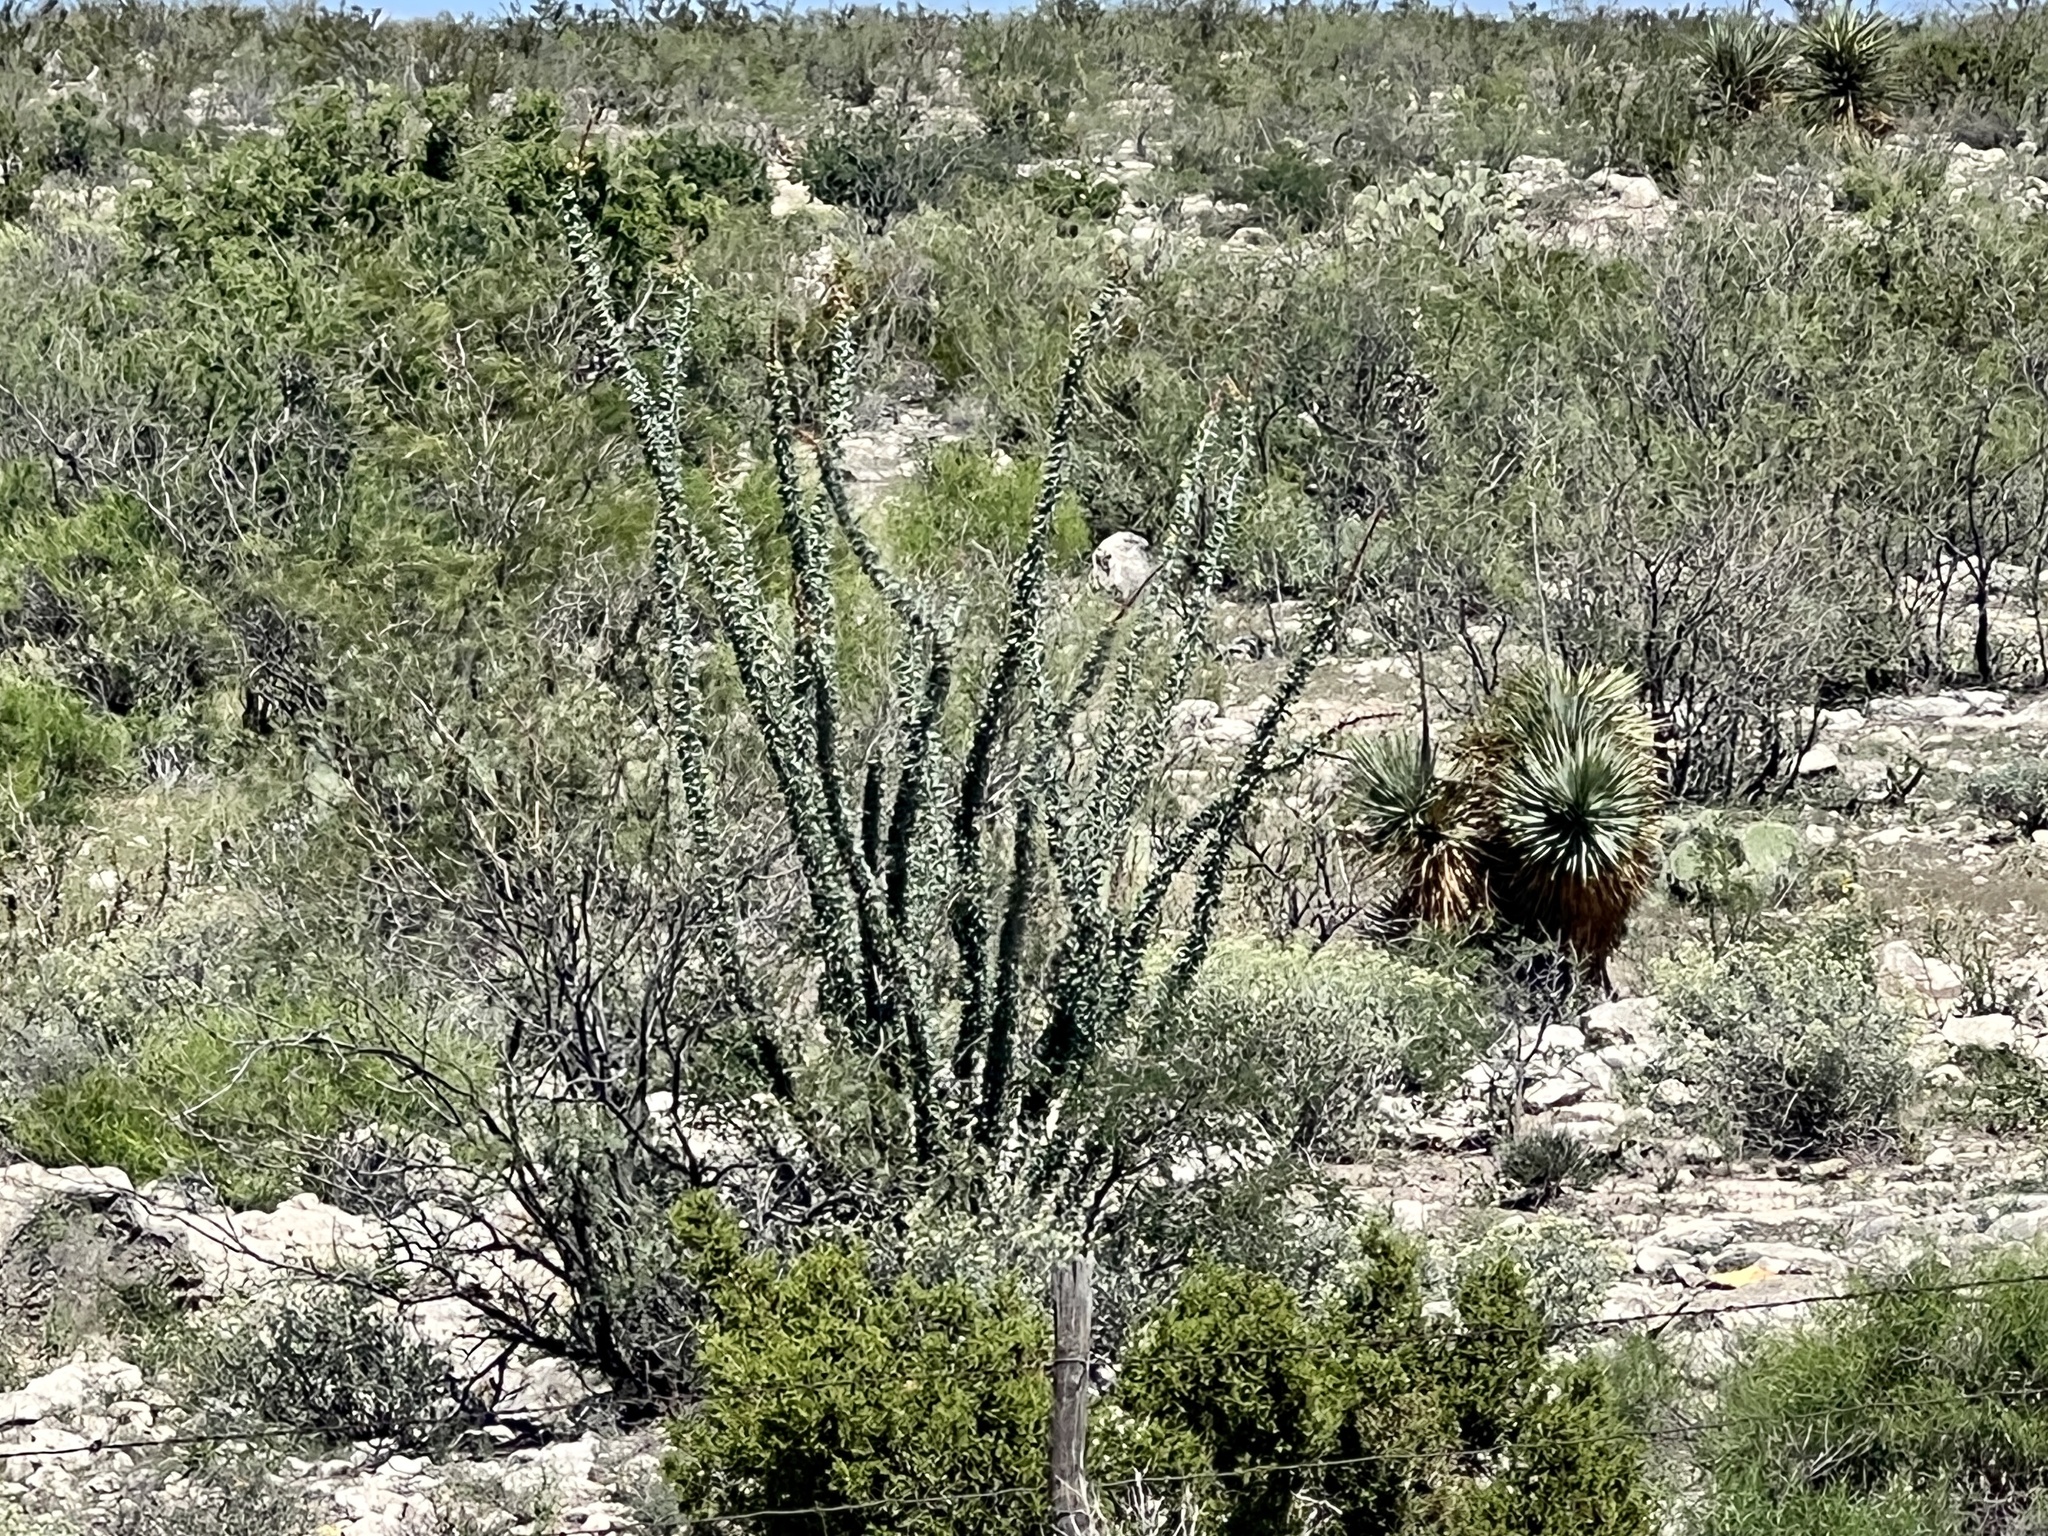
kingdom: Plantae
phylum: Tracheophyta
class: Magnoliopsida
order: Ericales
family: Fouquieriaceae
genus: Fouquieria
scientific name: Fouquieria splendens
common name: Vine-cactus
